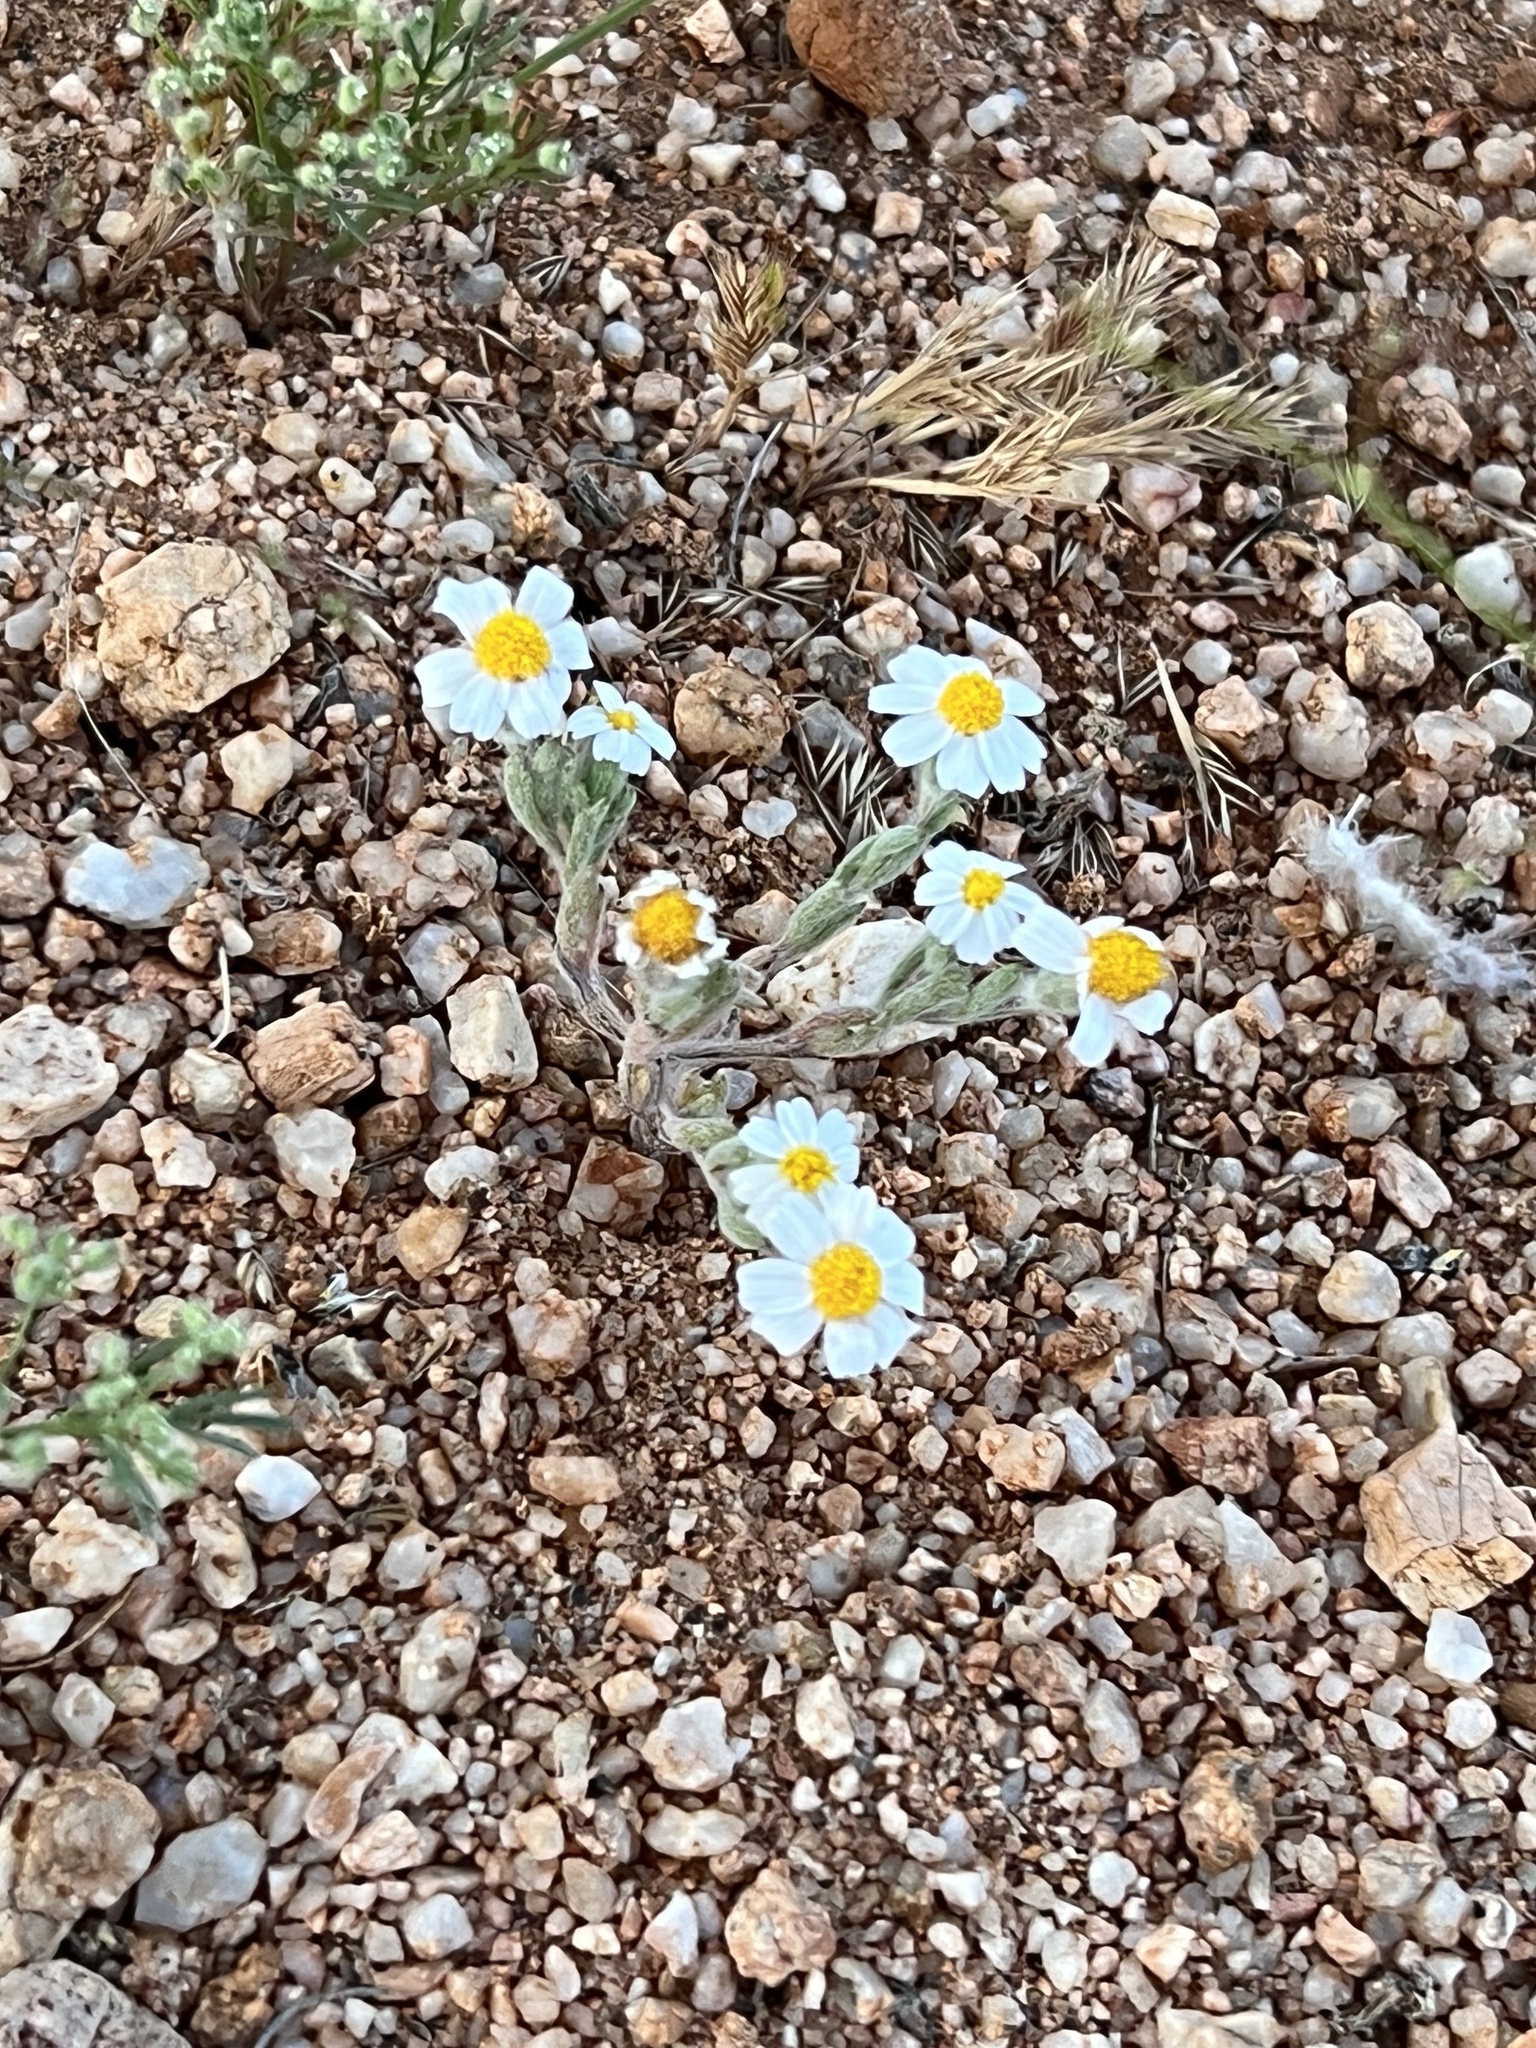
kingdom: Plantae
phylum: Tracheophyta
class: Magnoliopsida
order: Asterales
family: Asteraceae
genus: Eriophyllum
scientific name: Eriophyllum lanosum
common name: White easter-bonnets
